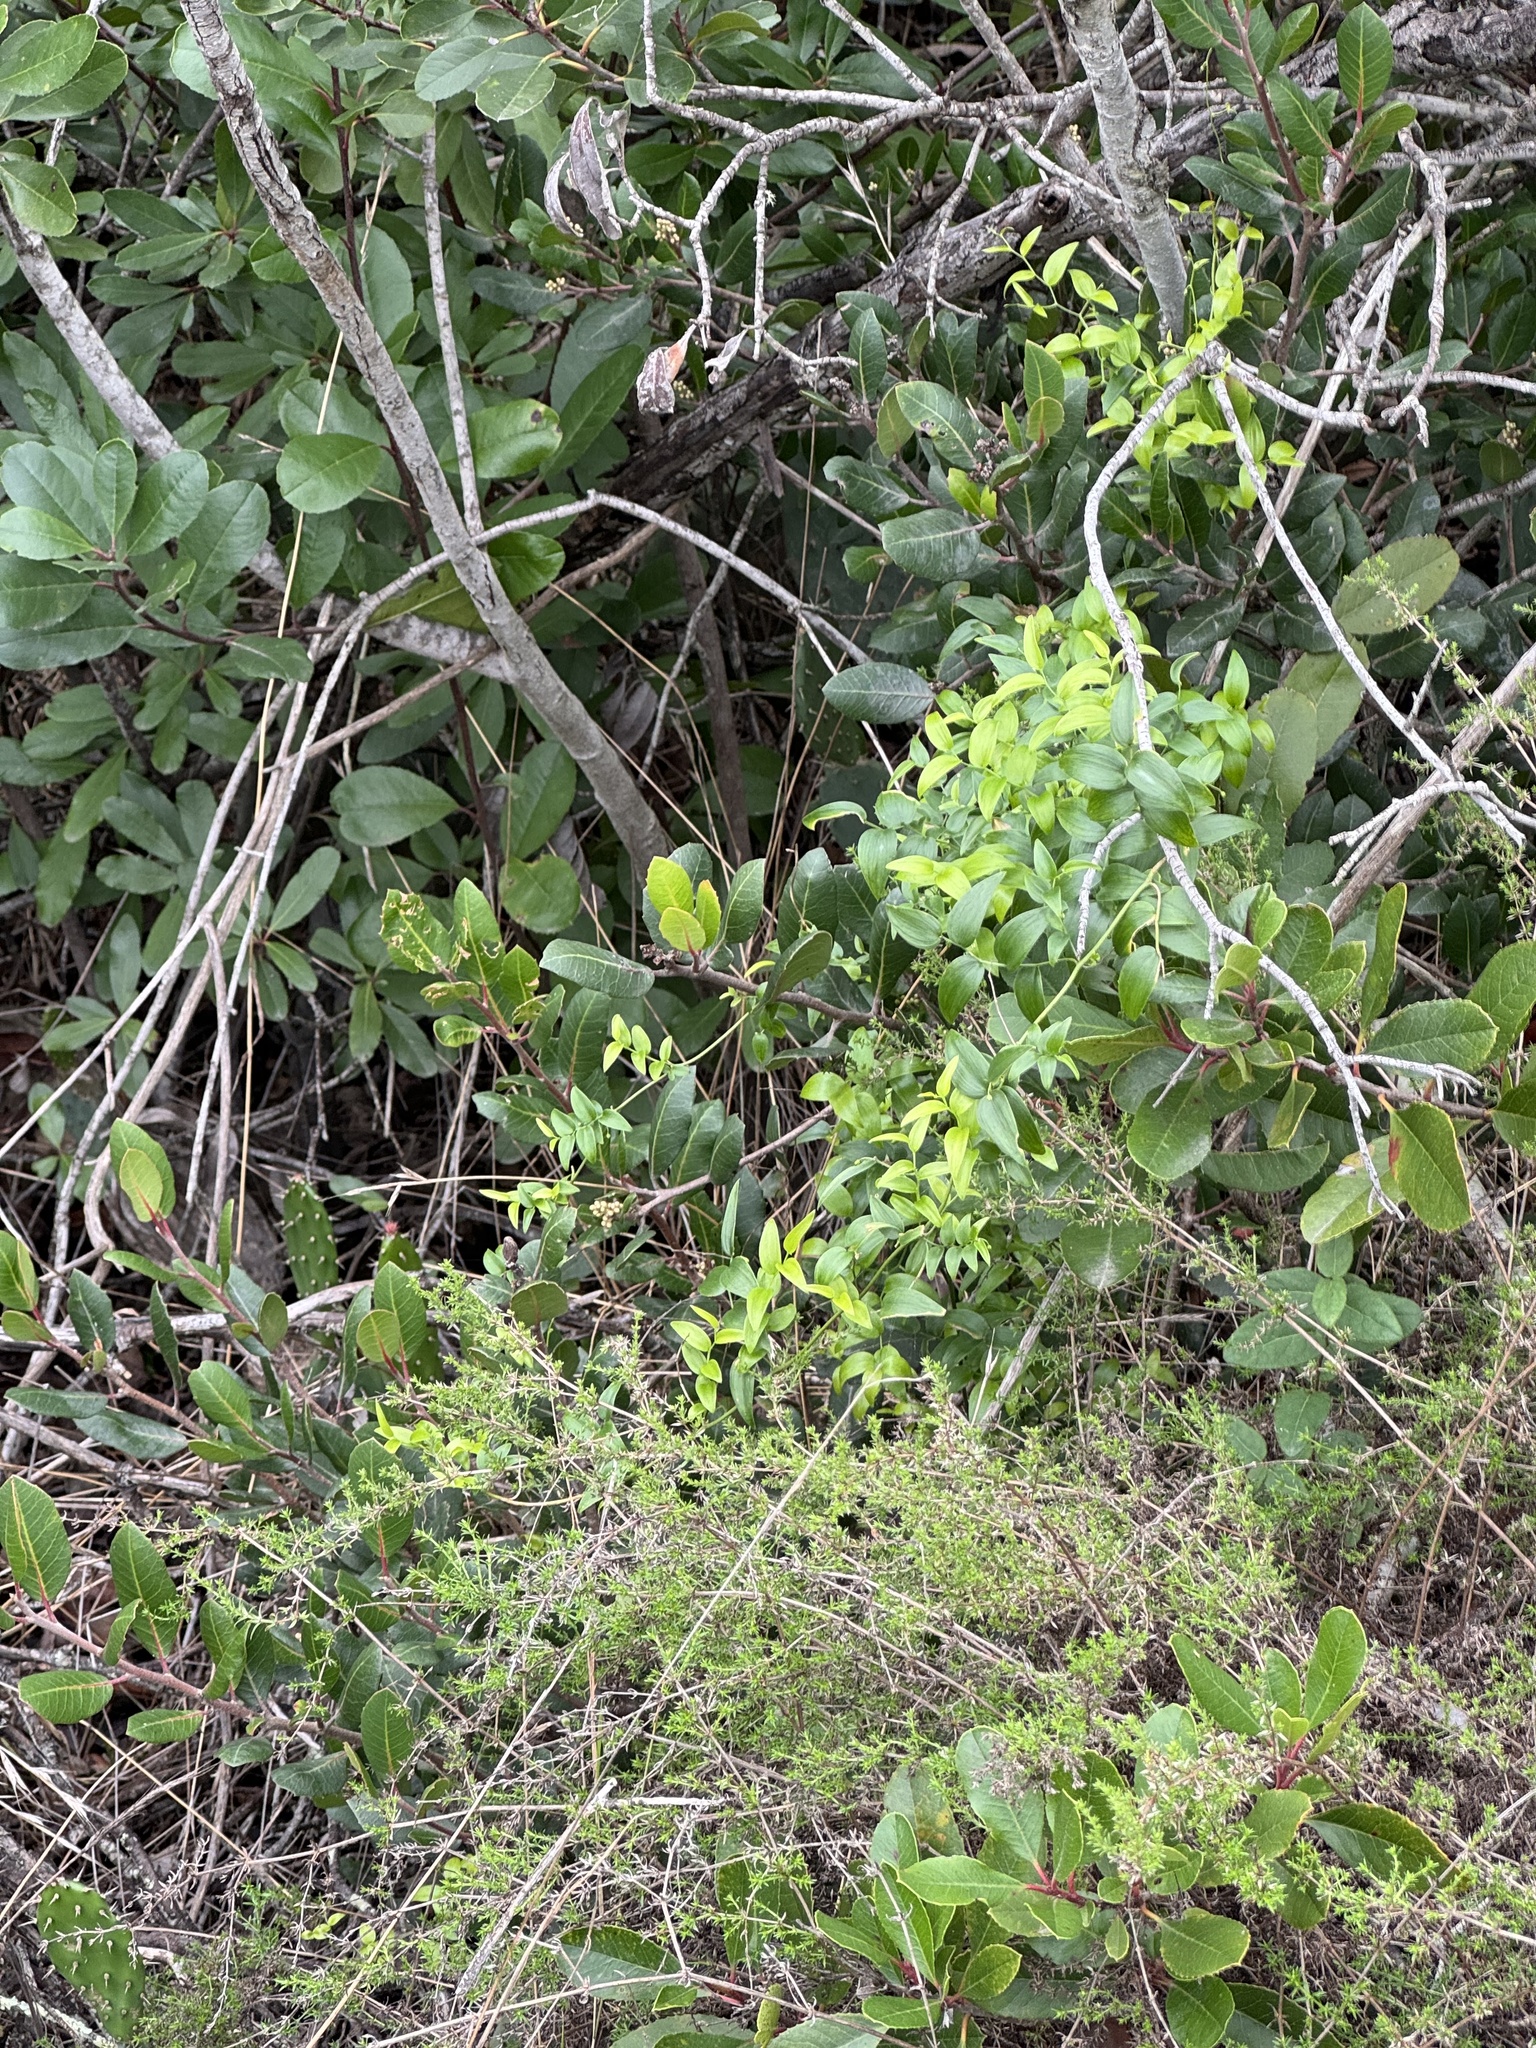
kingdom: Plantae
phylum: Tracheophyta
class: Liliopsida
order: Asparagales
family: Asparagaceae
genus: Asparagus
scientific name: Asparagus asparagoides
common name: African asparagus fern
